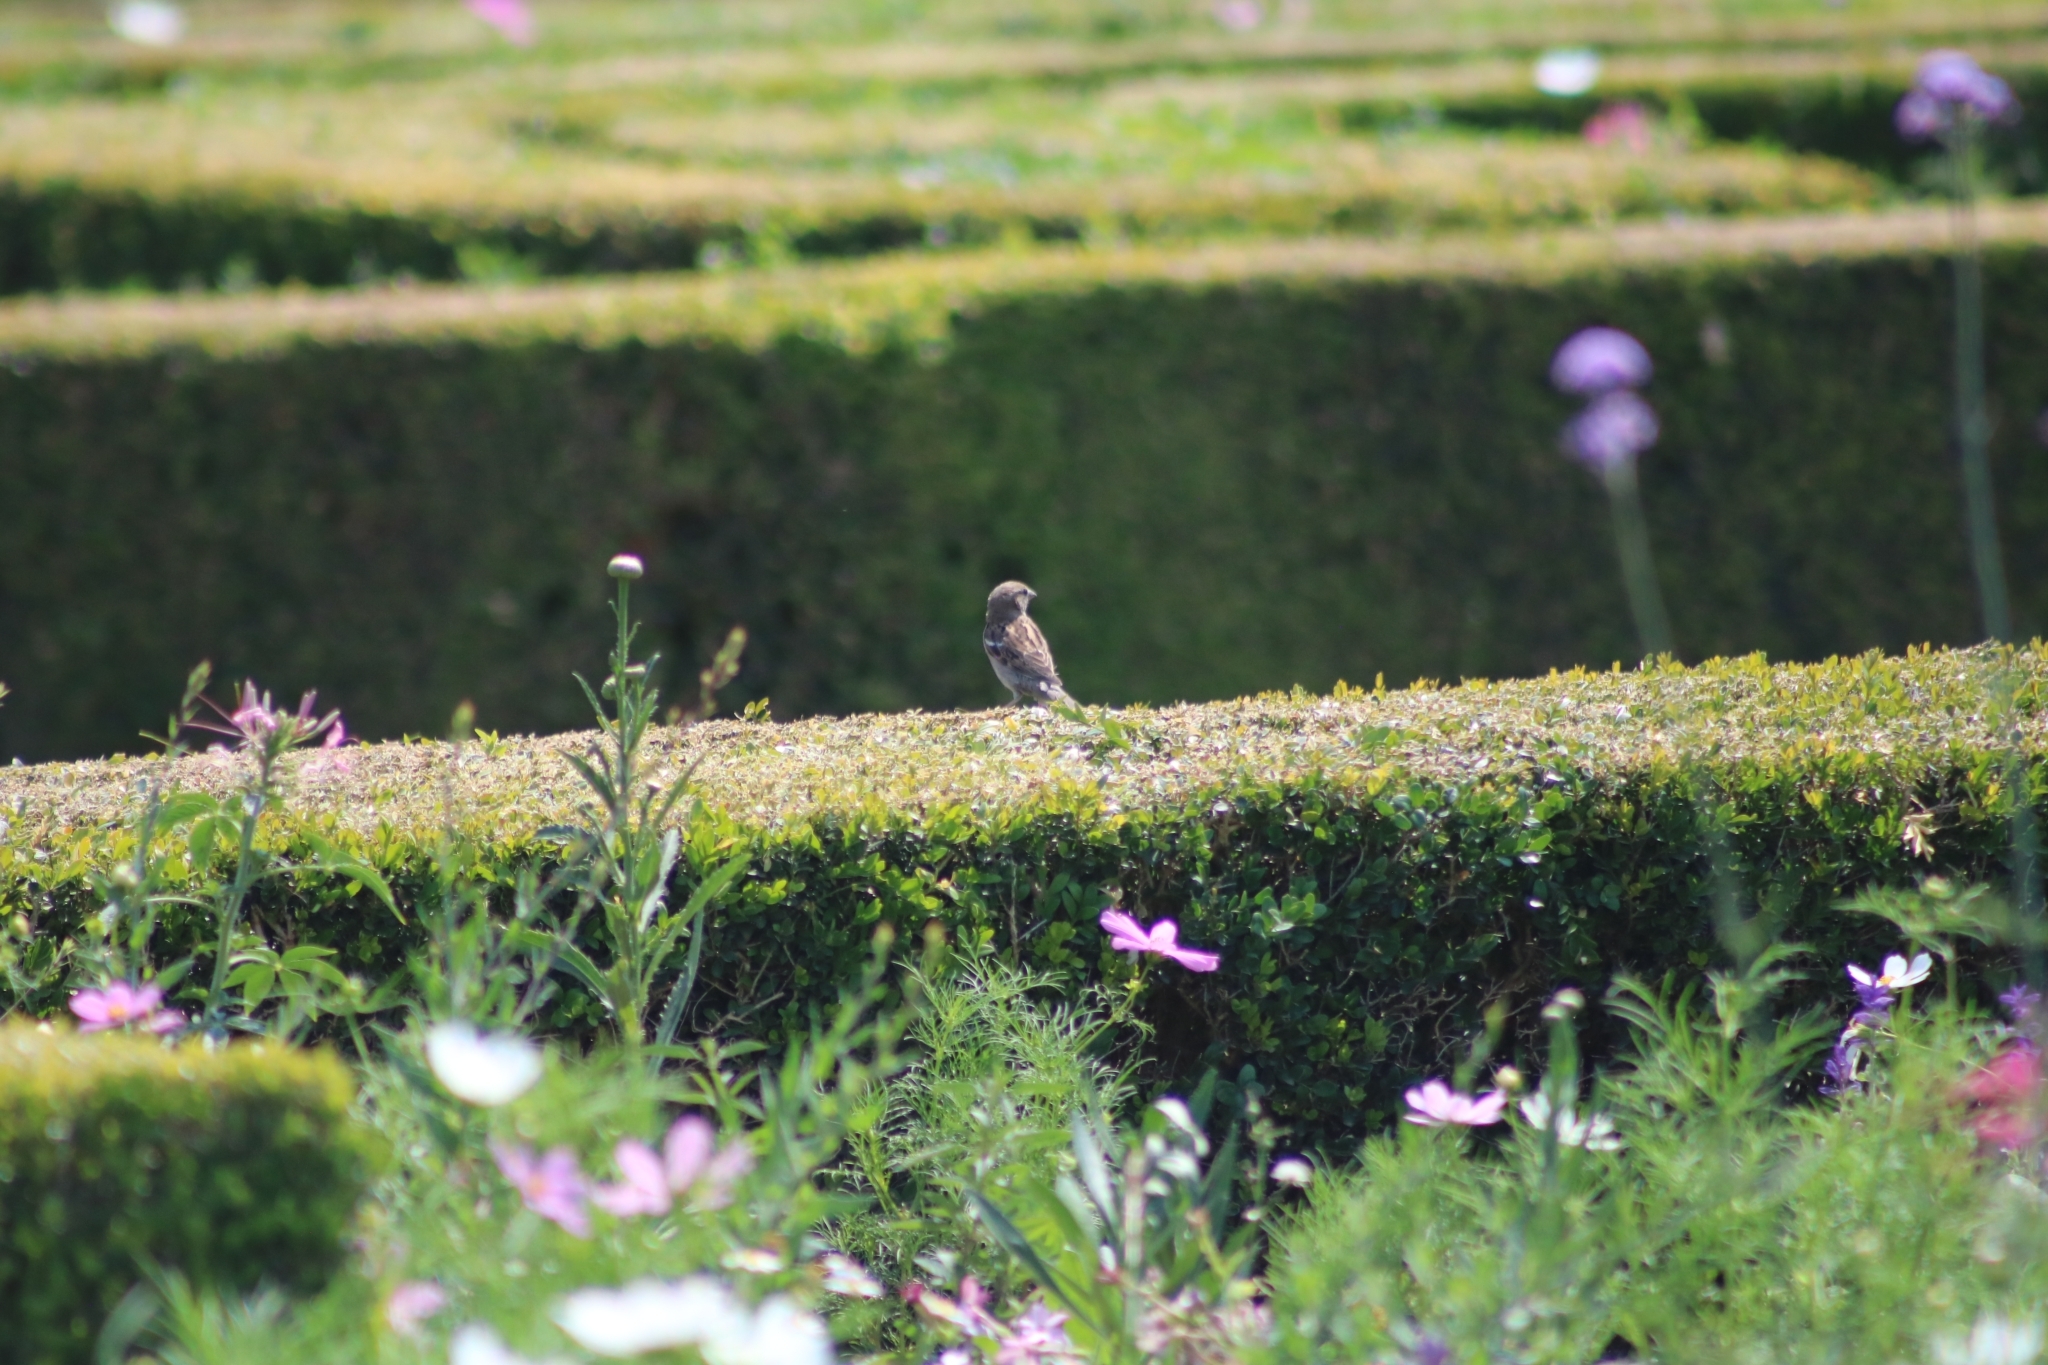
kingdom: Animalia
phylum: Chordata
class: Aves
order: Passeriformes
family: Passeridae
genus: Passer
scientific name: Passer domesticus
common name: House sparrow
